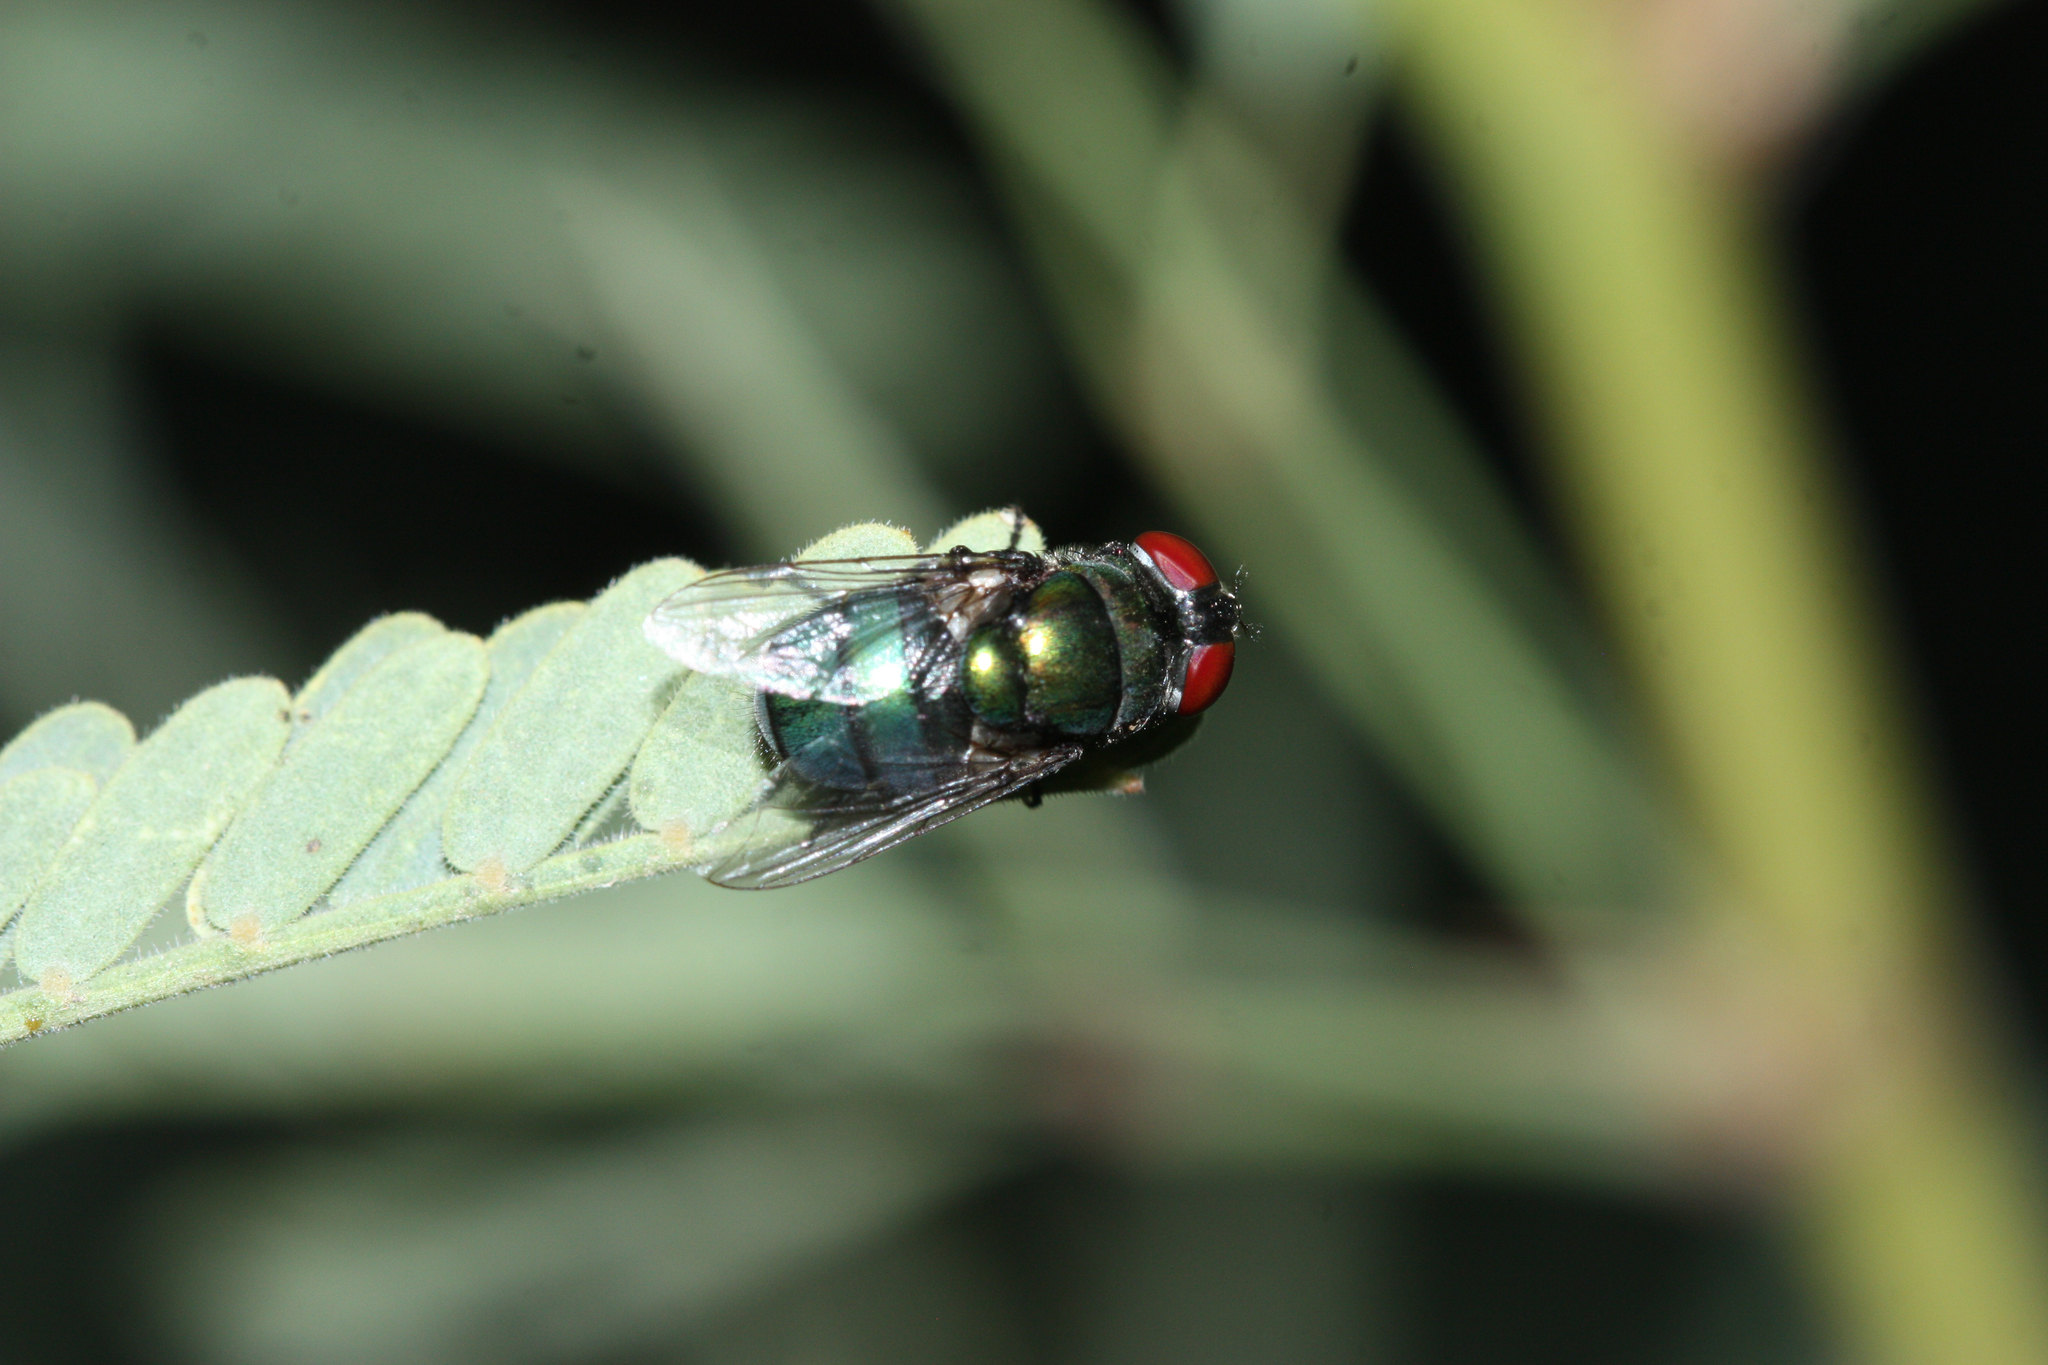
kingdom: Animalia
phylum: Arthropoda
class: Insecta
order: Diptera
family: Calliphoridae
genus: Chrysomya
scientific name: Chrysomya rufifacies
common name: Blow fly
